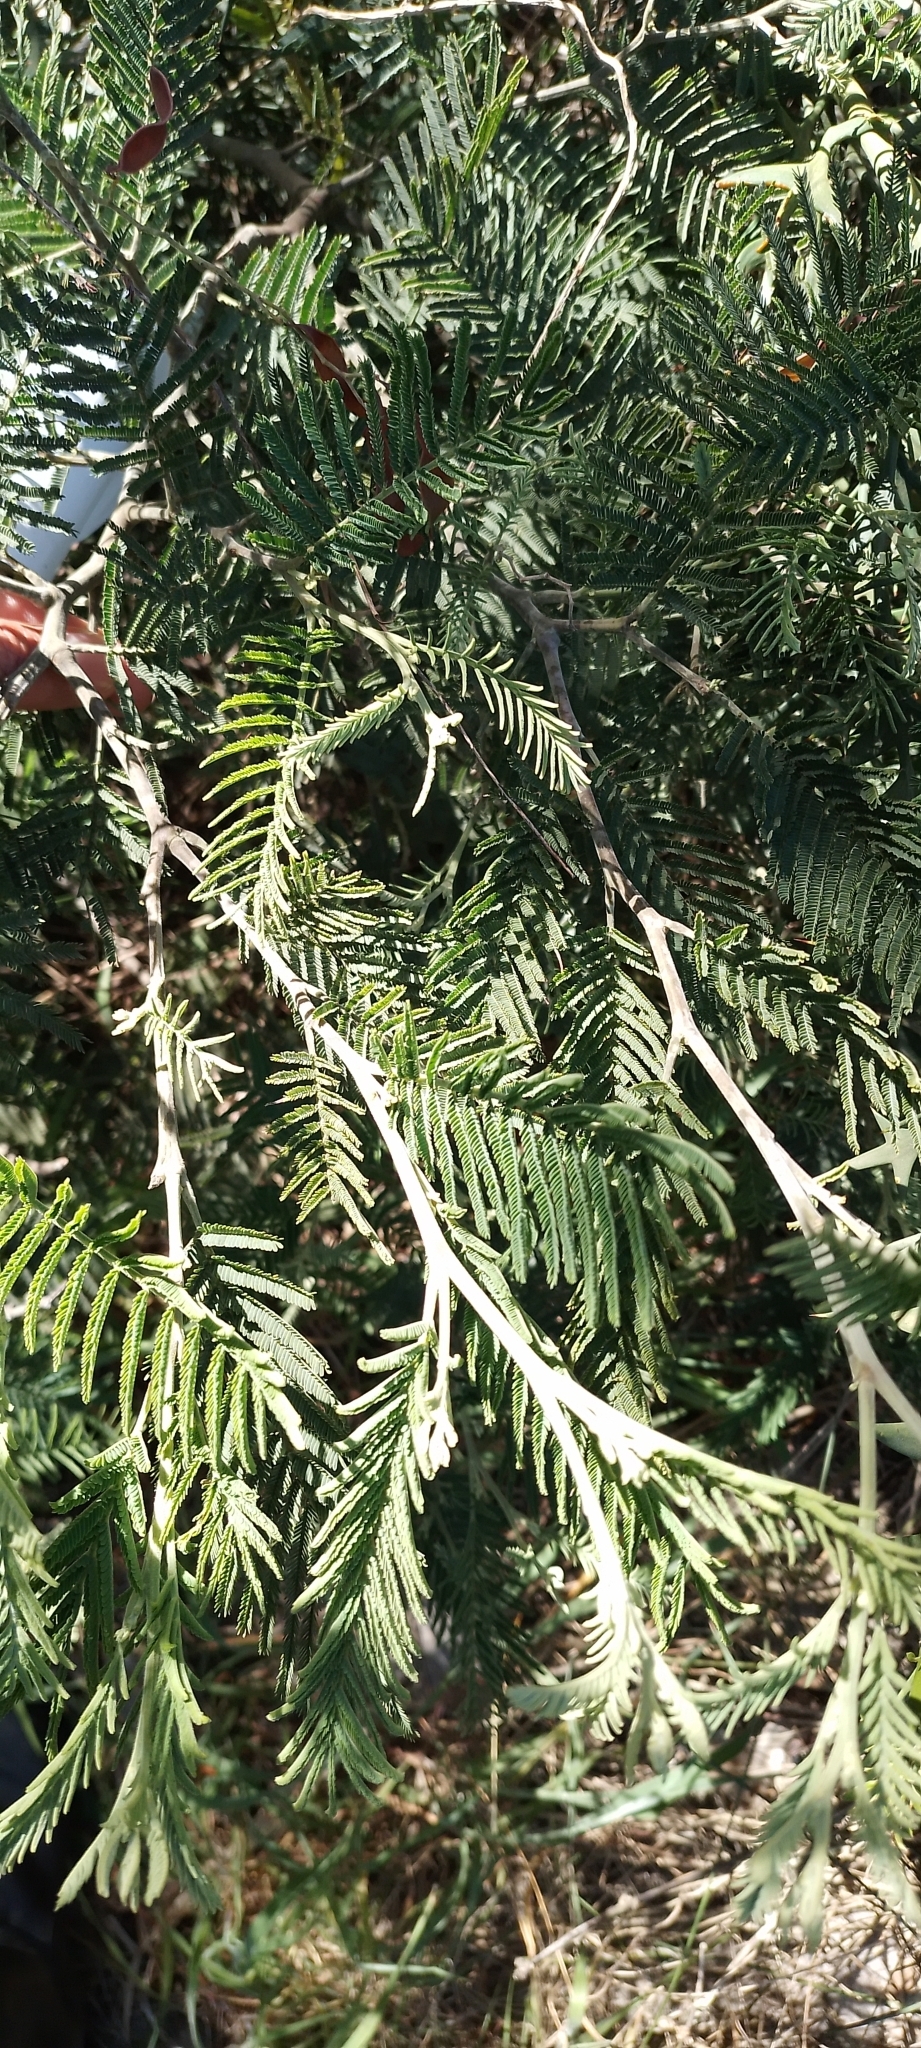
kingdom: Plantae
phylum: Tracheophyta
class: Magnoliopsida
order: Fabales
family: Fabaceae
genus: Acacia
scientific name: Acacia dealbata
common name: Silver wattle
